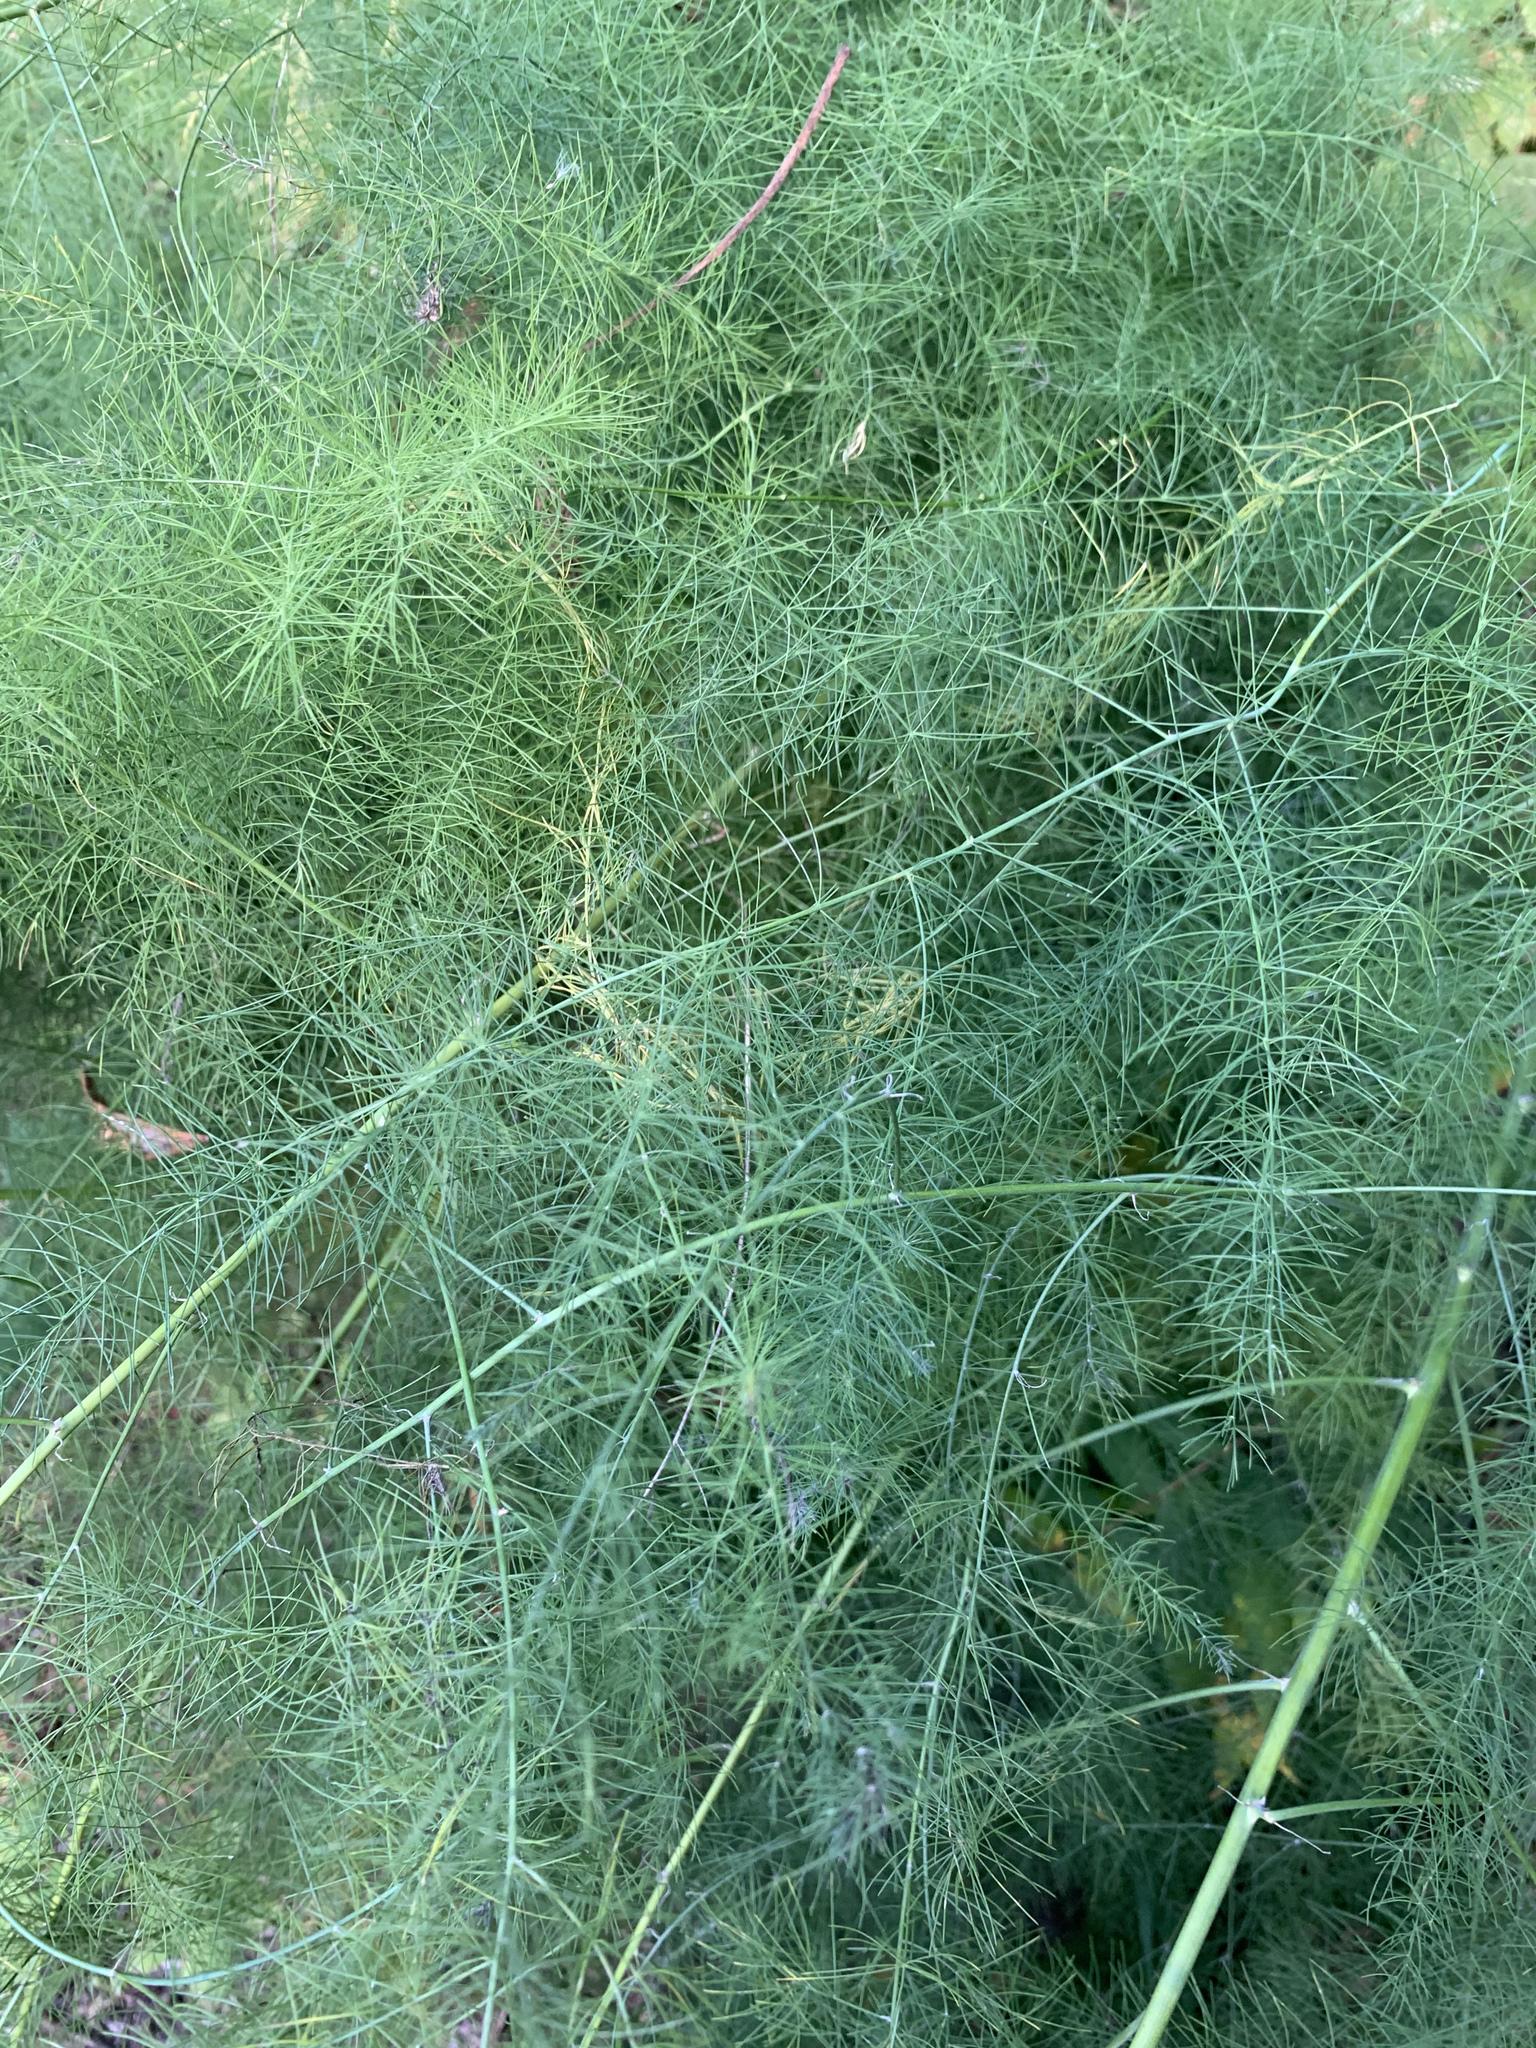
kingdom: Plantae
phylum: Tracheophyta
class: Liliopsida
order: Asparagales
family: Asparagaceae
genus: Asparagus
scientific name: Asparagus officinalis
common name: Garden asparagus
